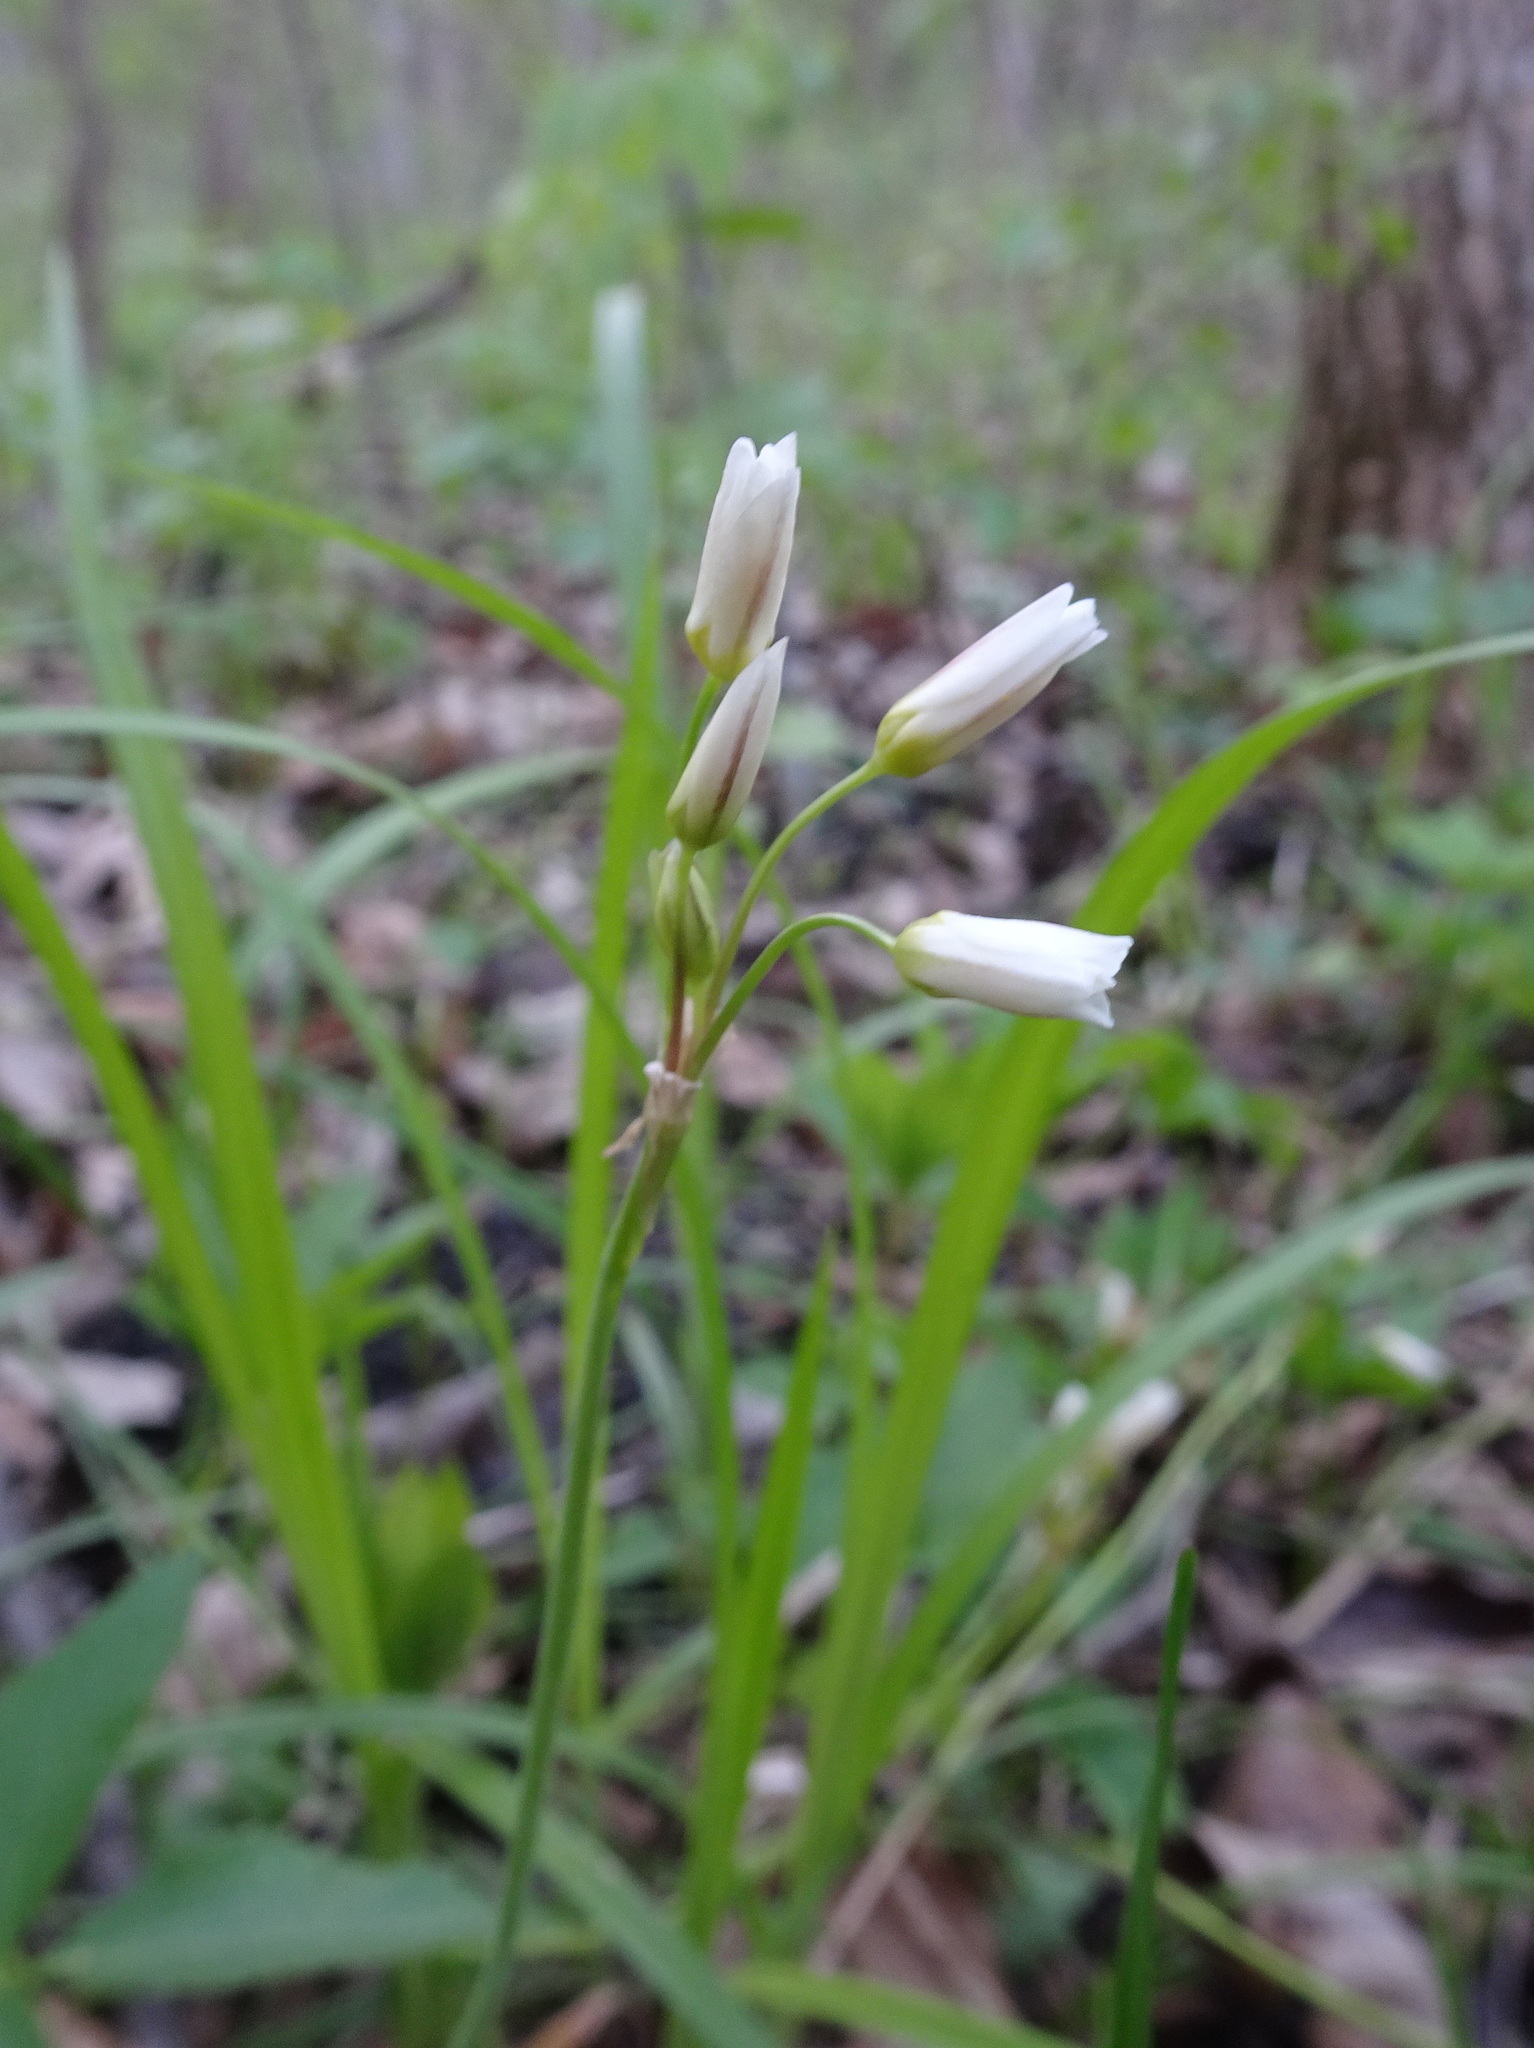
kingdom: Plantae
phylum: Tracheophyta
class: Liliopsida
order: Asparagales
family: Amaryllidaceae
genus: Nothoscordum
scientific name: Nothoscordum bivalve
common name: Crow-poison
